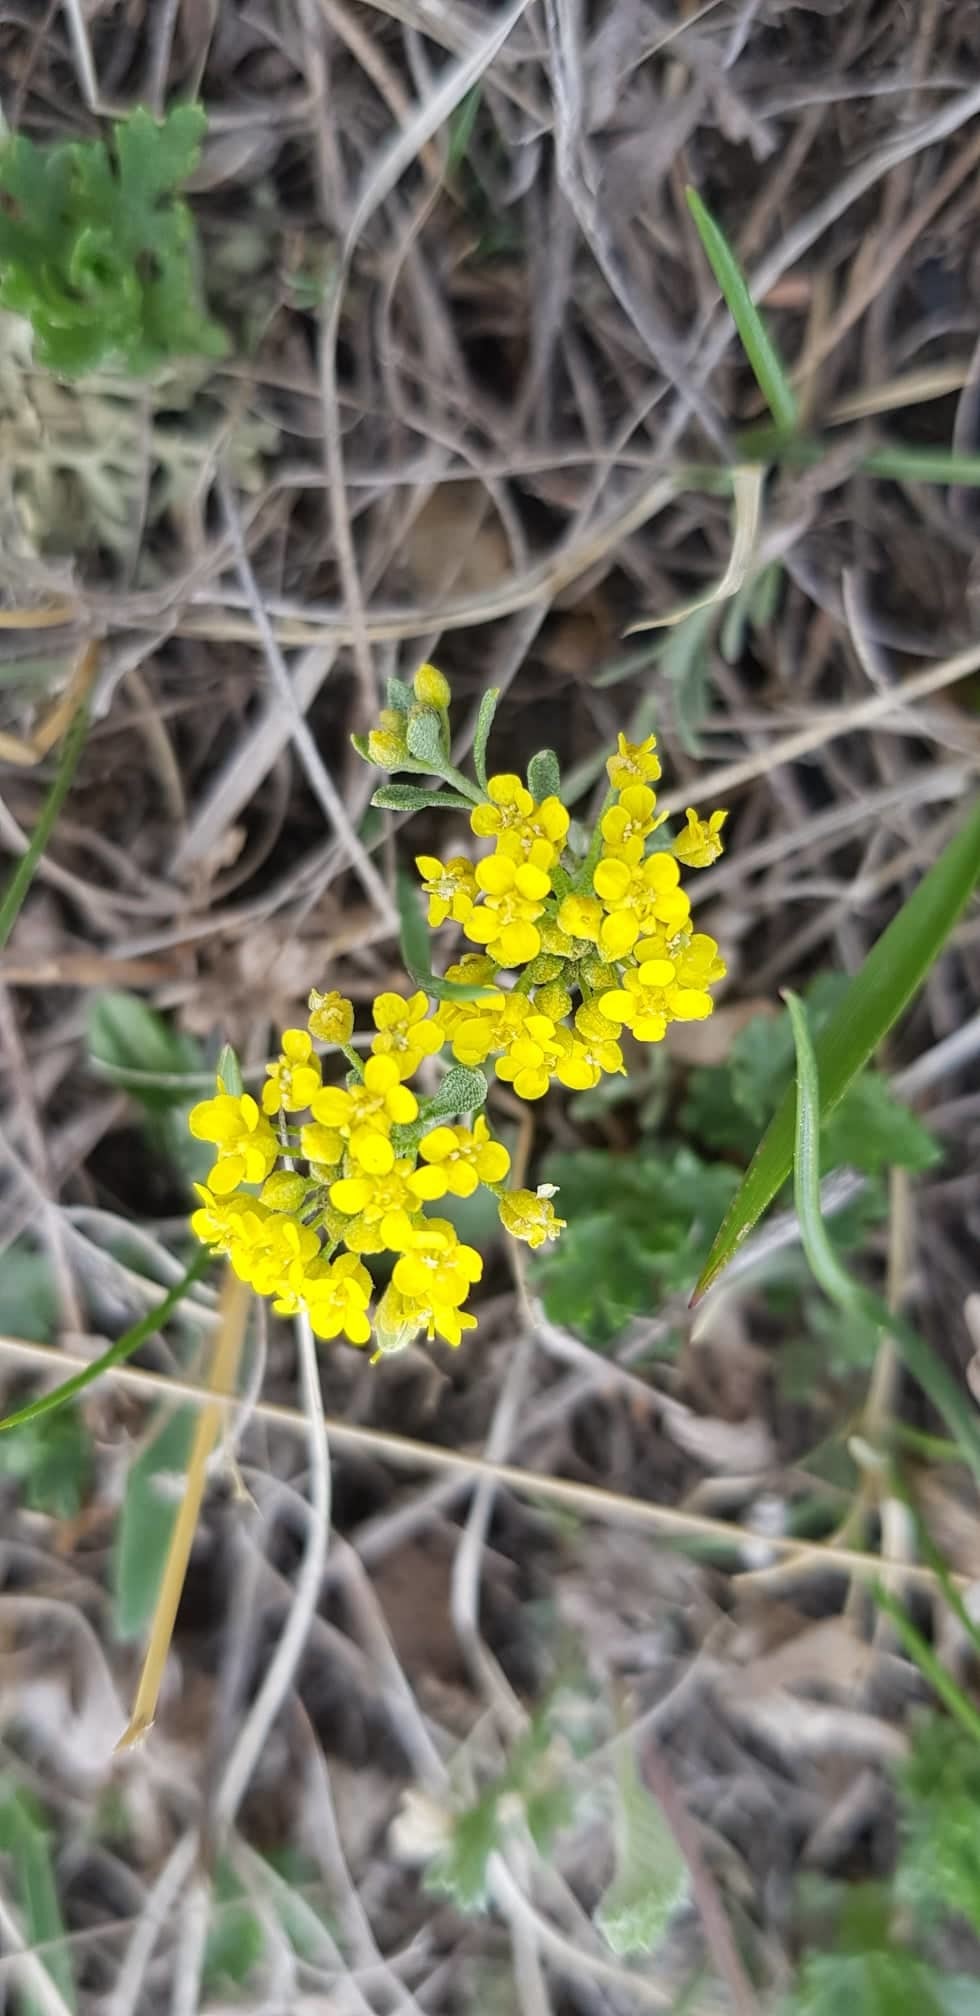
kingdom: Plantae
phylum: Tracheophyta
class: Magnoliopsida
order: Brassicales
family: Brassicaceae
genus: Alyssum
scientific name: Alyssum lenense
